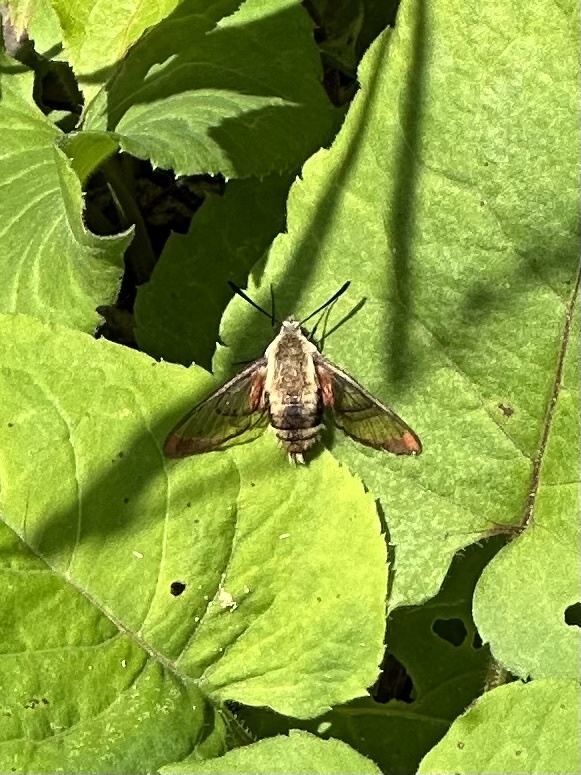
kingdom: Animalia
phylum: Arthropoda
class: Insecta
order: Lepidoptera
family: Sphingidae
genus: Hemaris
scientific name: Hemaris diffinis
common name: Bumblebee moth
